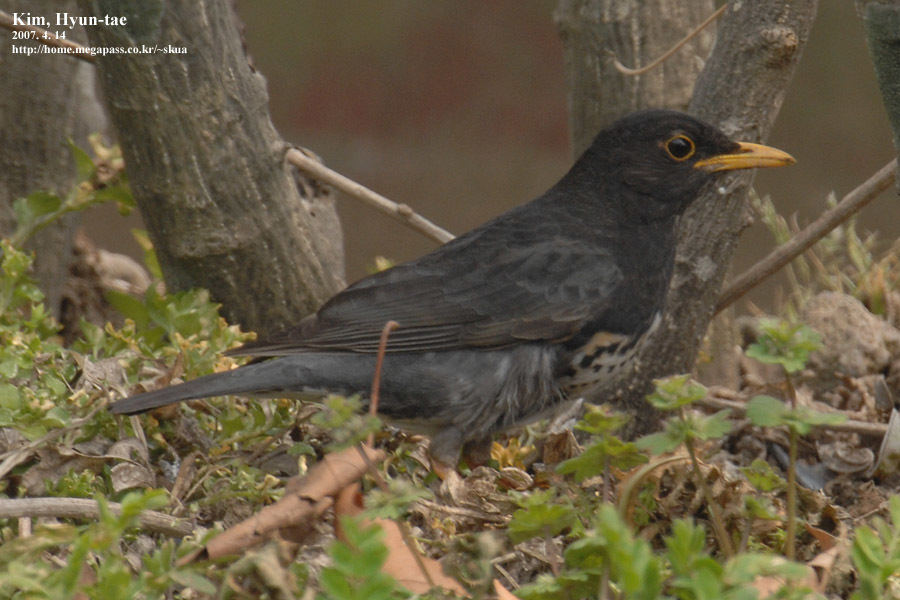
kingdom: Animalia
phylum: Chordata
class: Aves
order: Passeriformes
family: Turdidae
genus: Turdus
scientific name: Turdus cardis
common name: Japanese thrush
